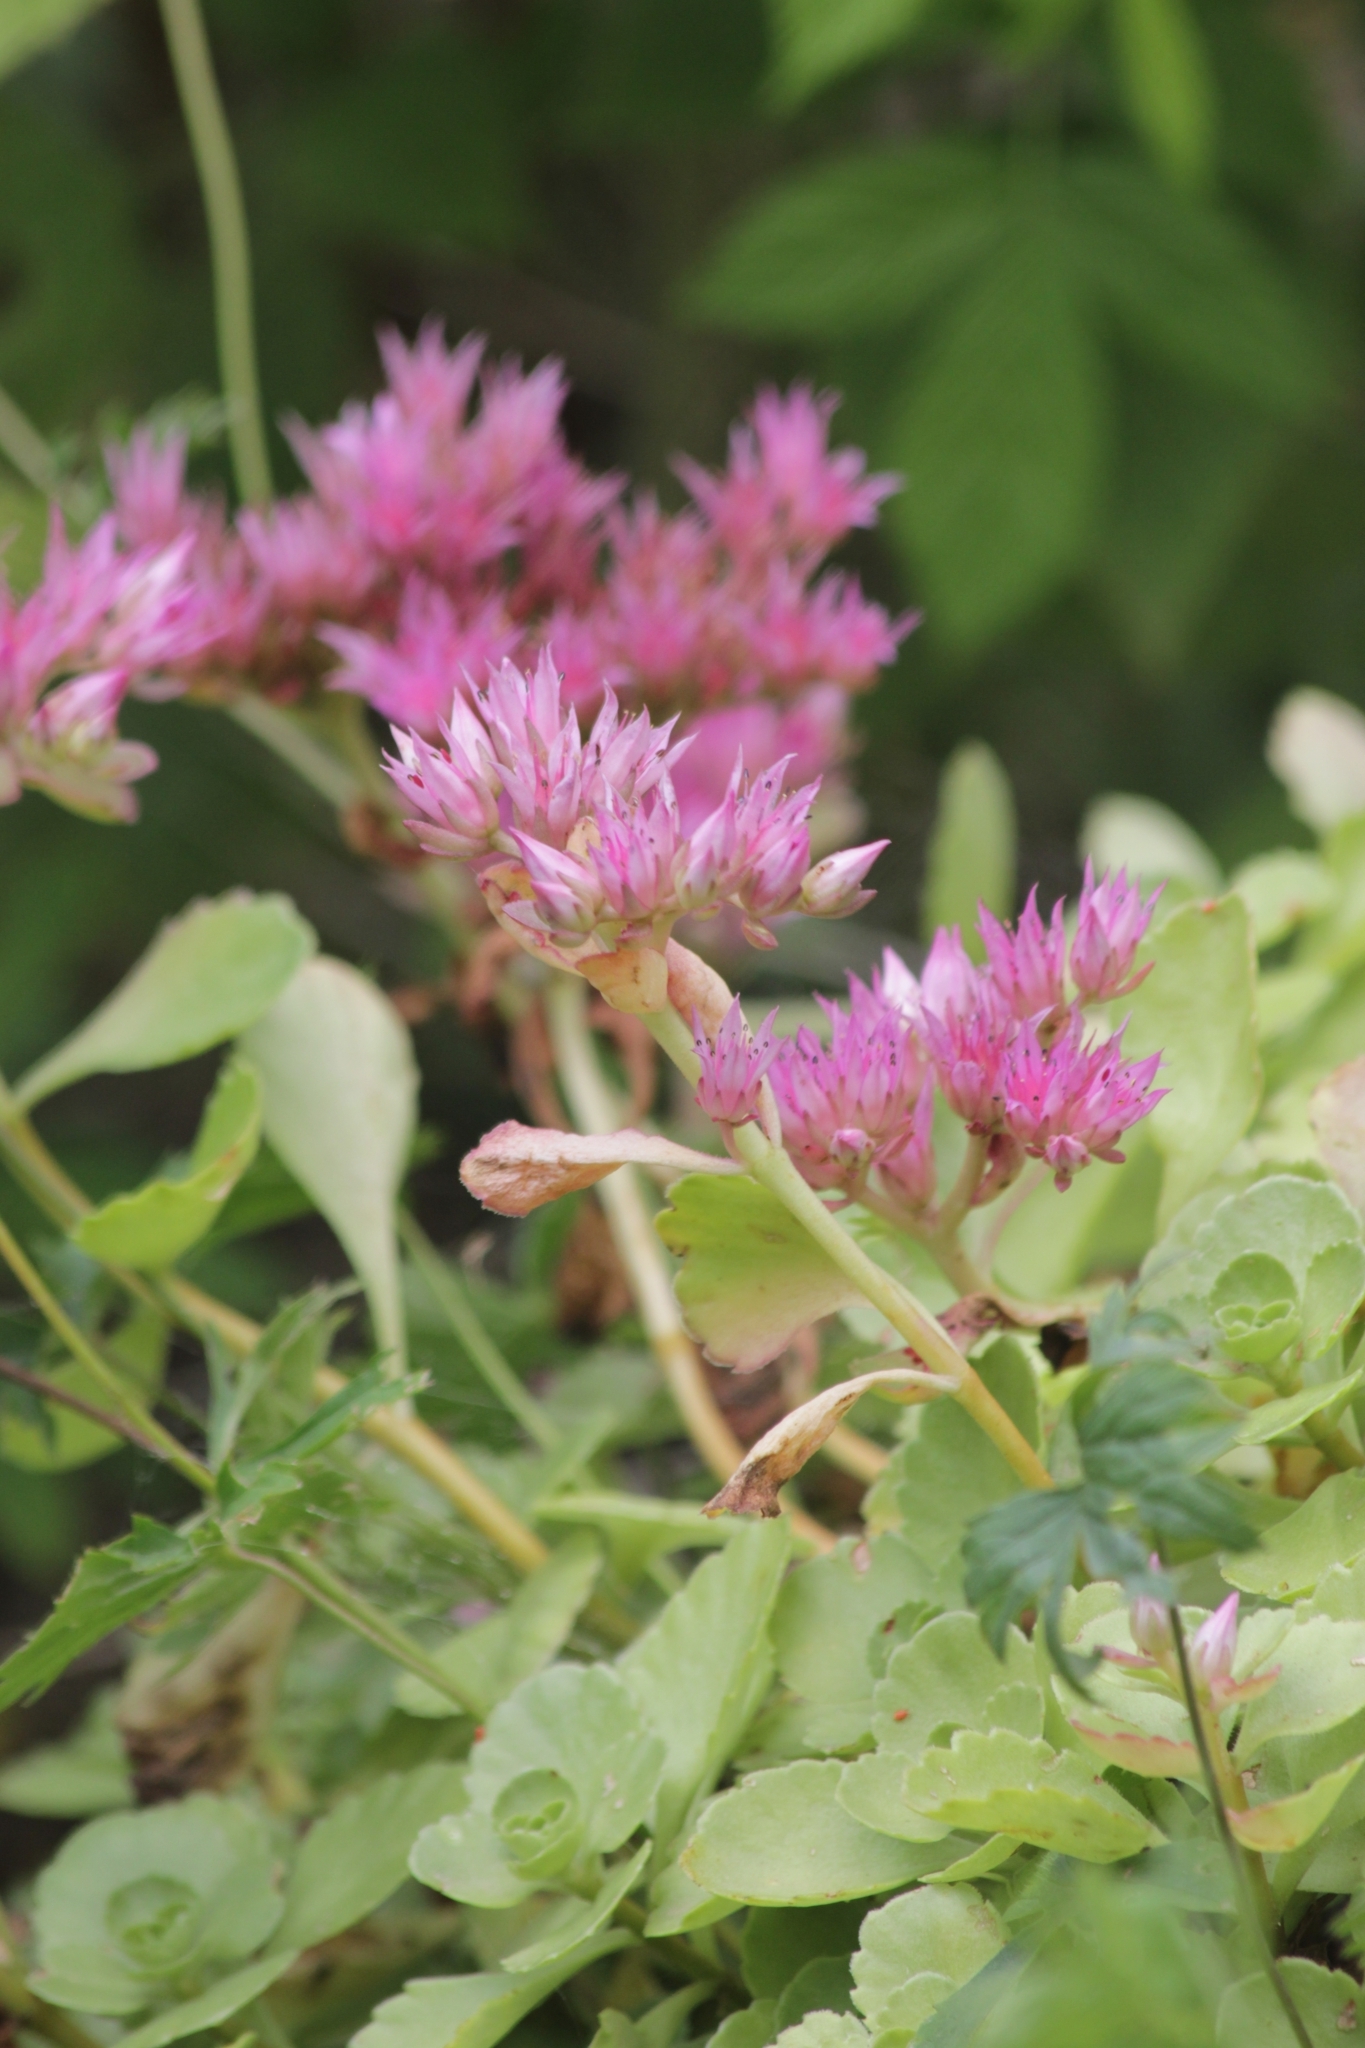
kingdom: Plantae
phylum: Tracheophyta
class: Magnoliopsida
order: Saxifragales
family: Crassulaceae
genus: Phedimus
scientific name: Phedimus spurius
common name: Caucasian stonecrop
